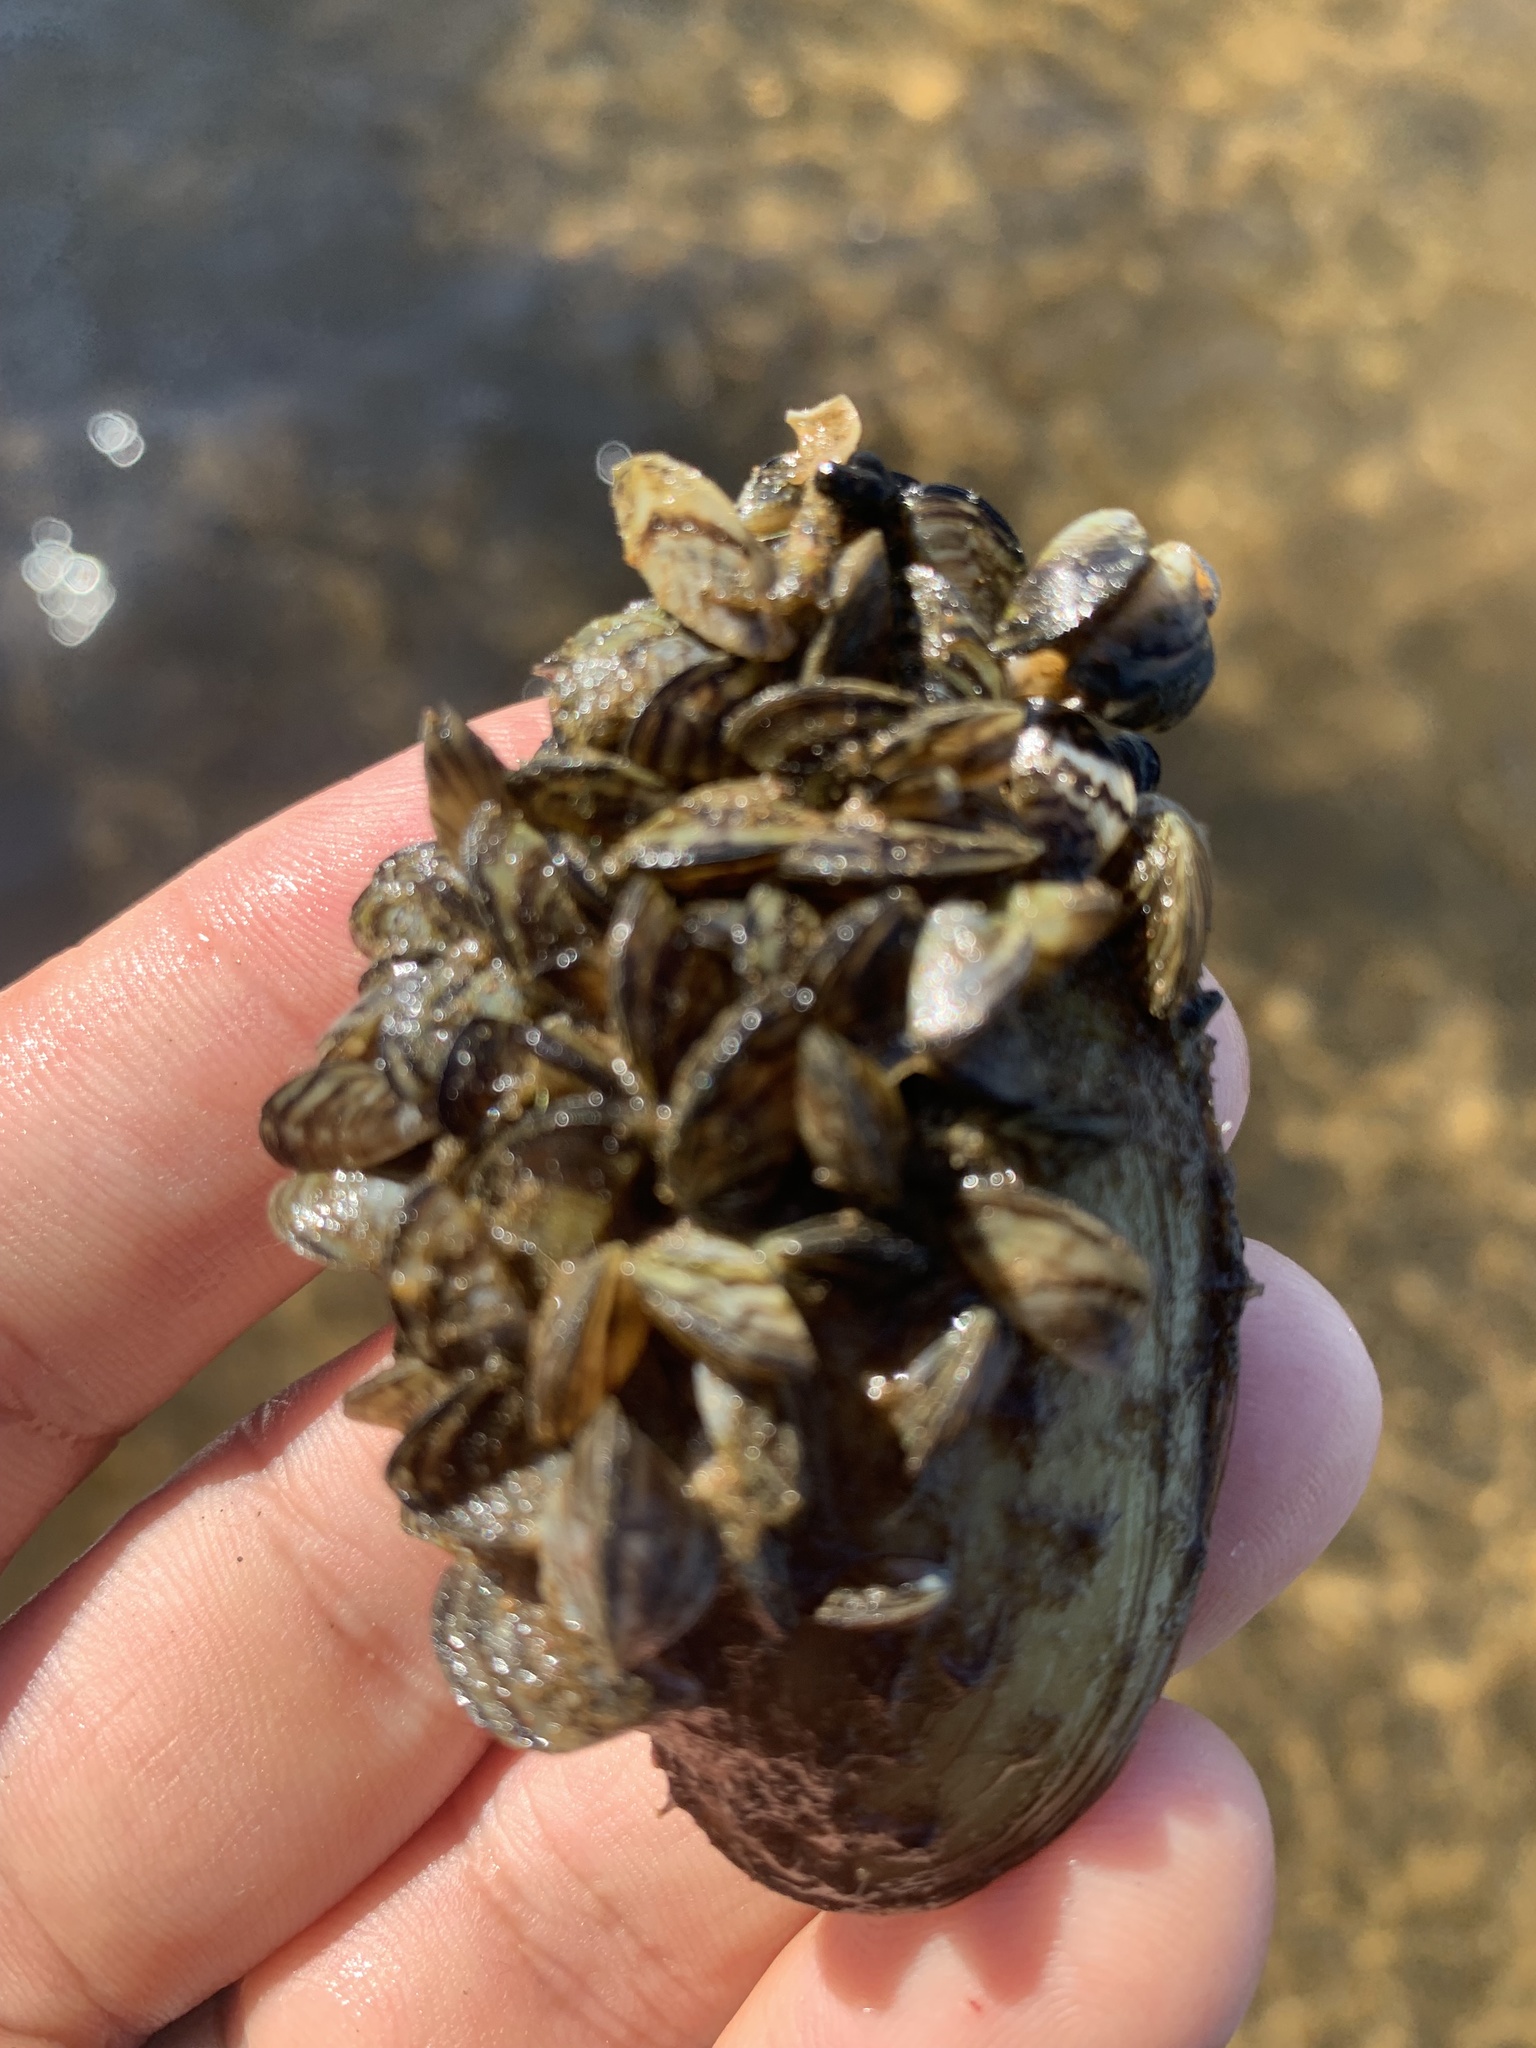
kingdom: Animalia
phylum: Mollusca
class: Bivalvia
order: Myida
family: Dreissenidae
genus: Dreissena
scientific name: Dreissena polymorpha
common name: Zebra mussel
